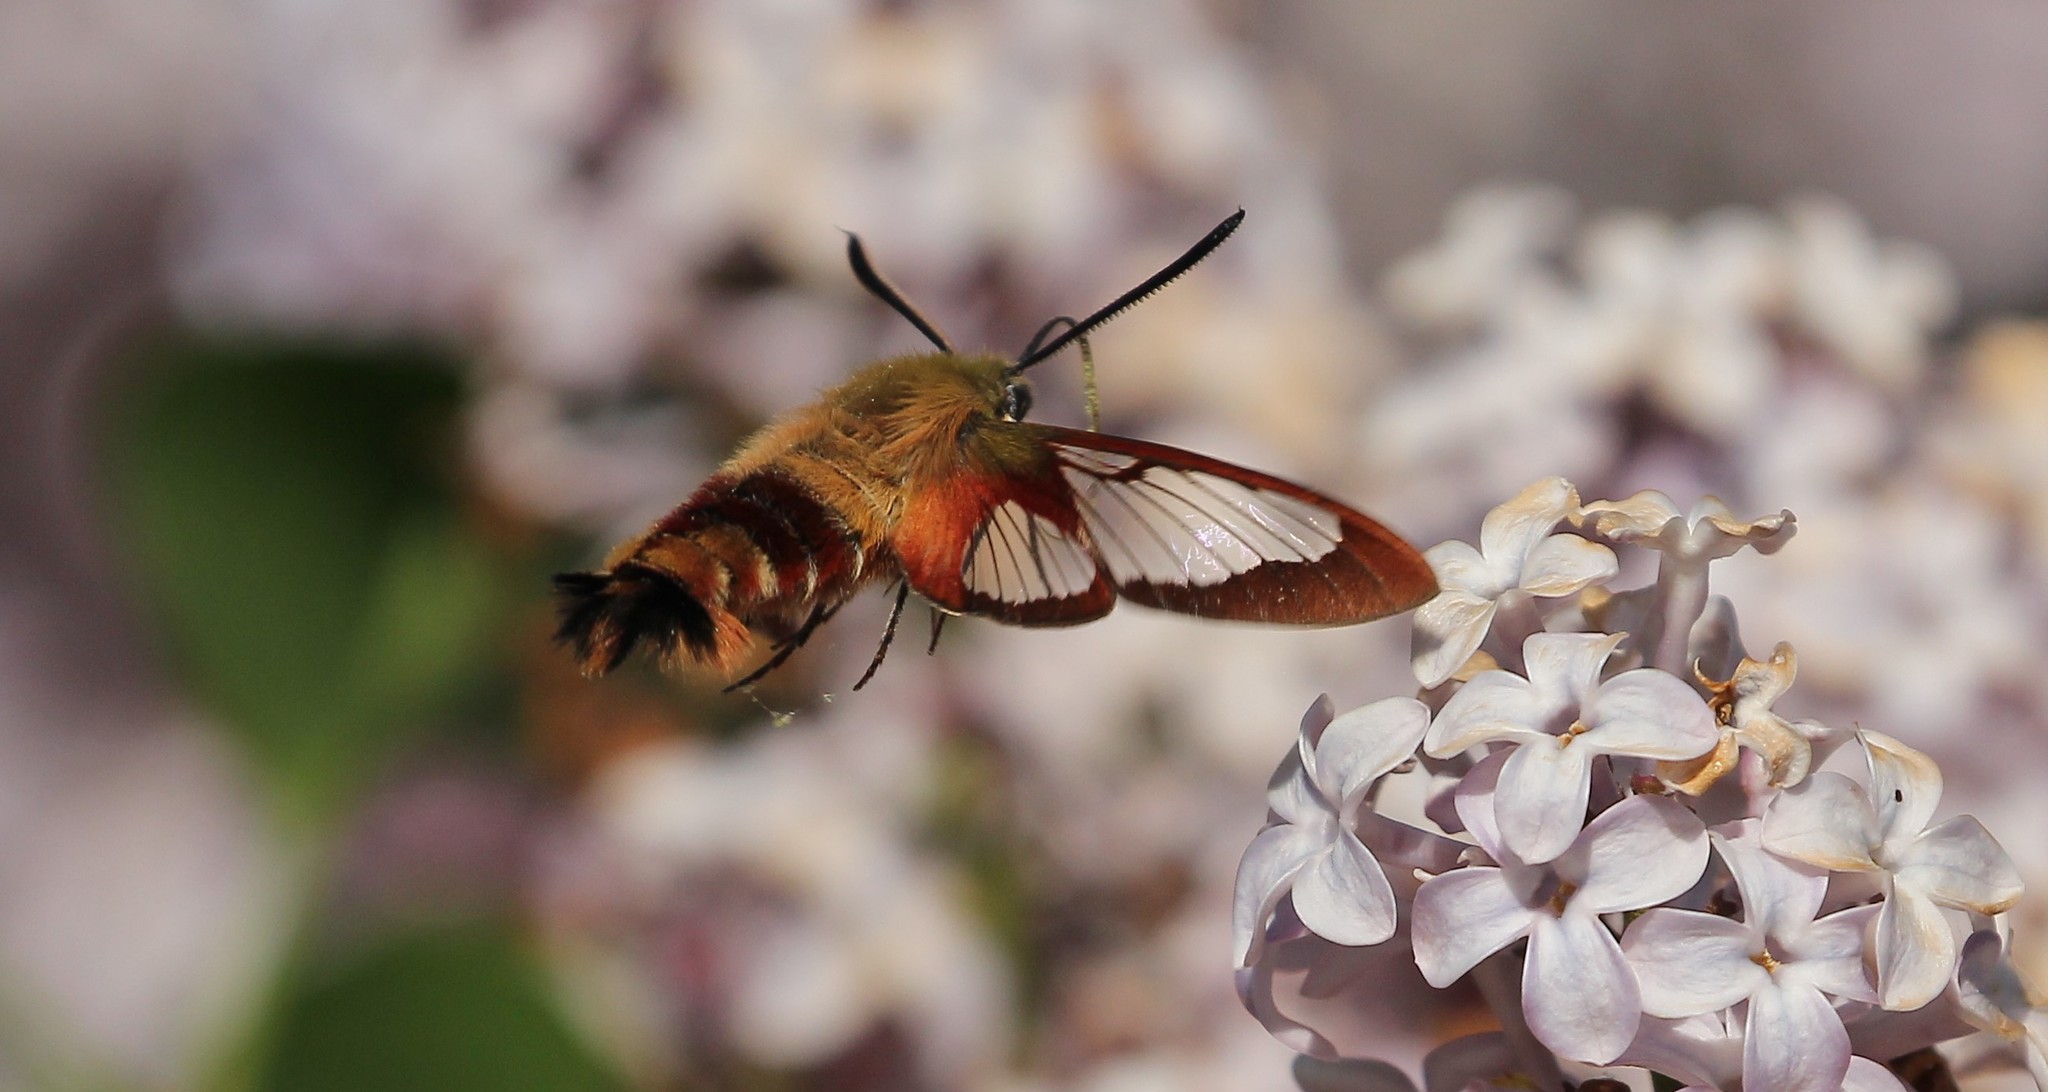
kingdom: Animalia
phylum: Arthropoda
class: Insecta
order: Lepidoptera
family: Sphingidae
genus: Hemaris
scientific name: Hemaris thysbe
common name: Common clear-wing
